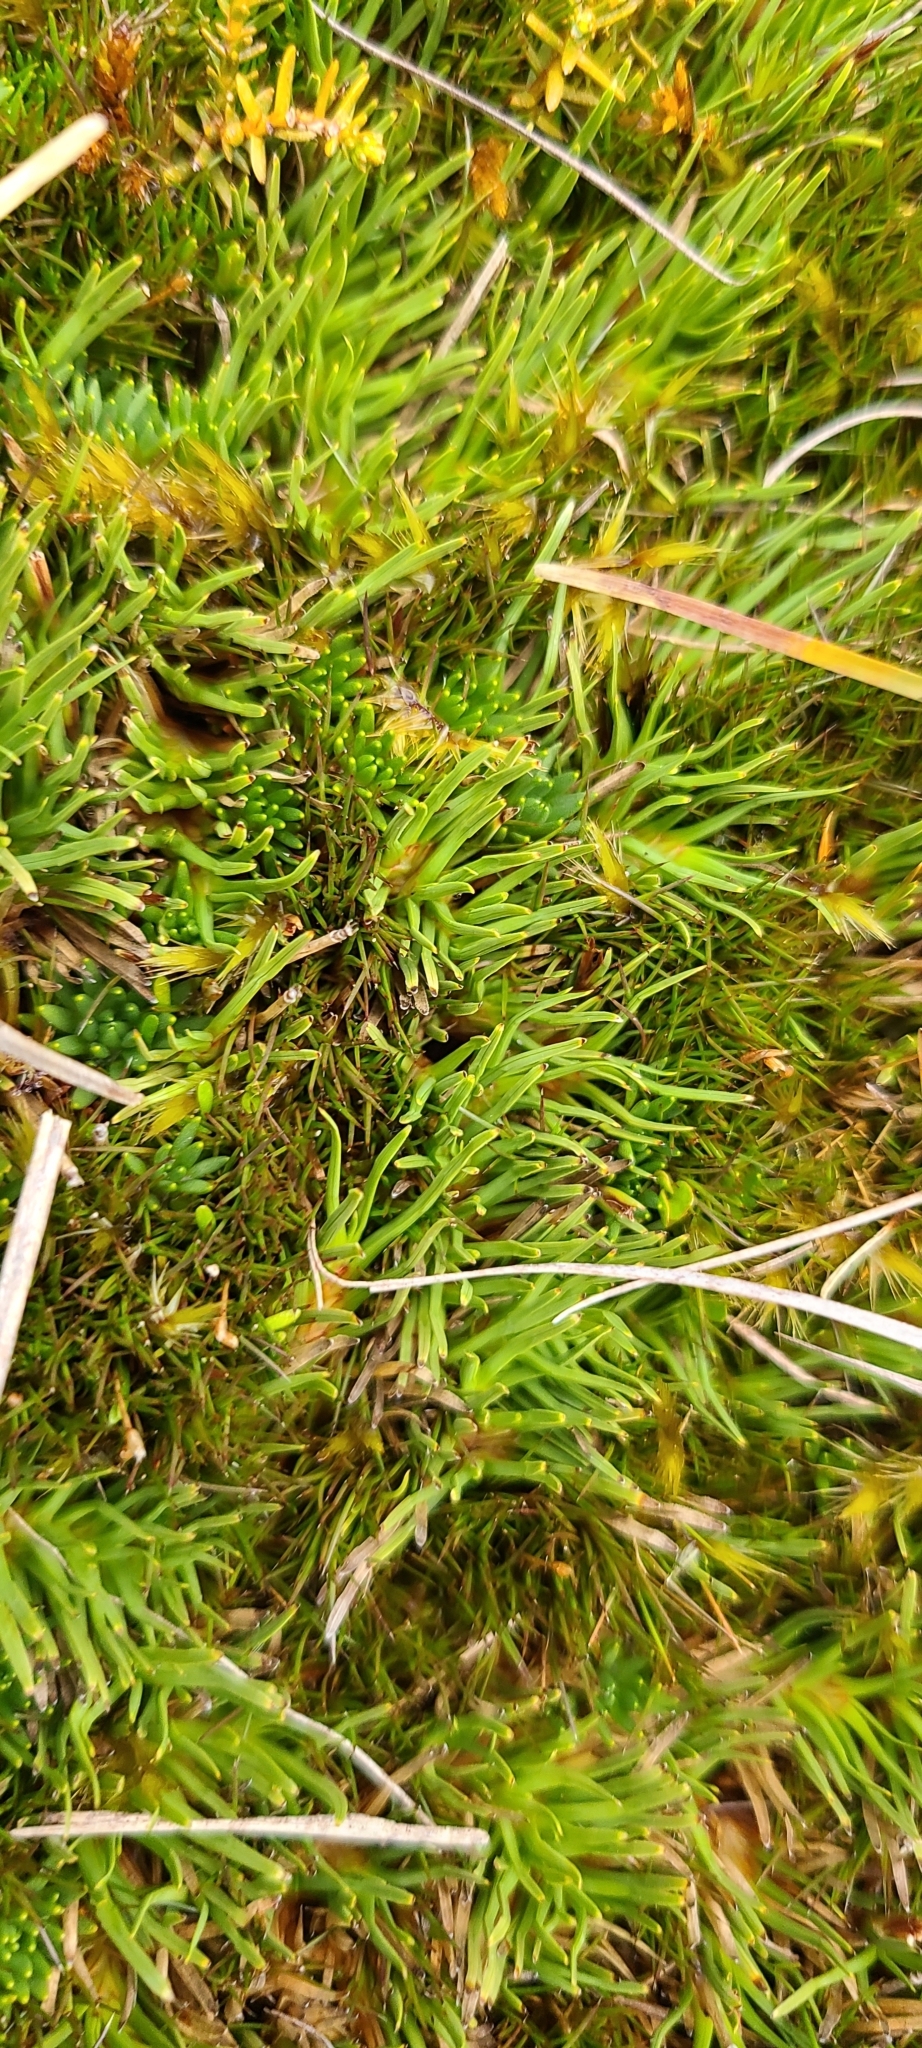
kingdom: Plantae
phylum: Tracheophyta
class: Liliopsida
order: Poales
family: Cyperaceae
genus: Oreobolus
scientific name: Oreobolus pectinatus
